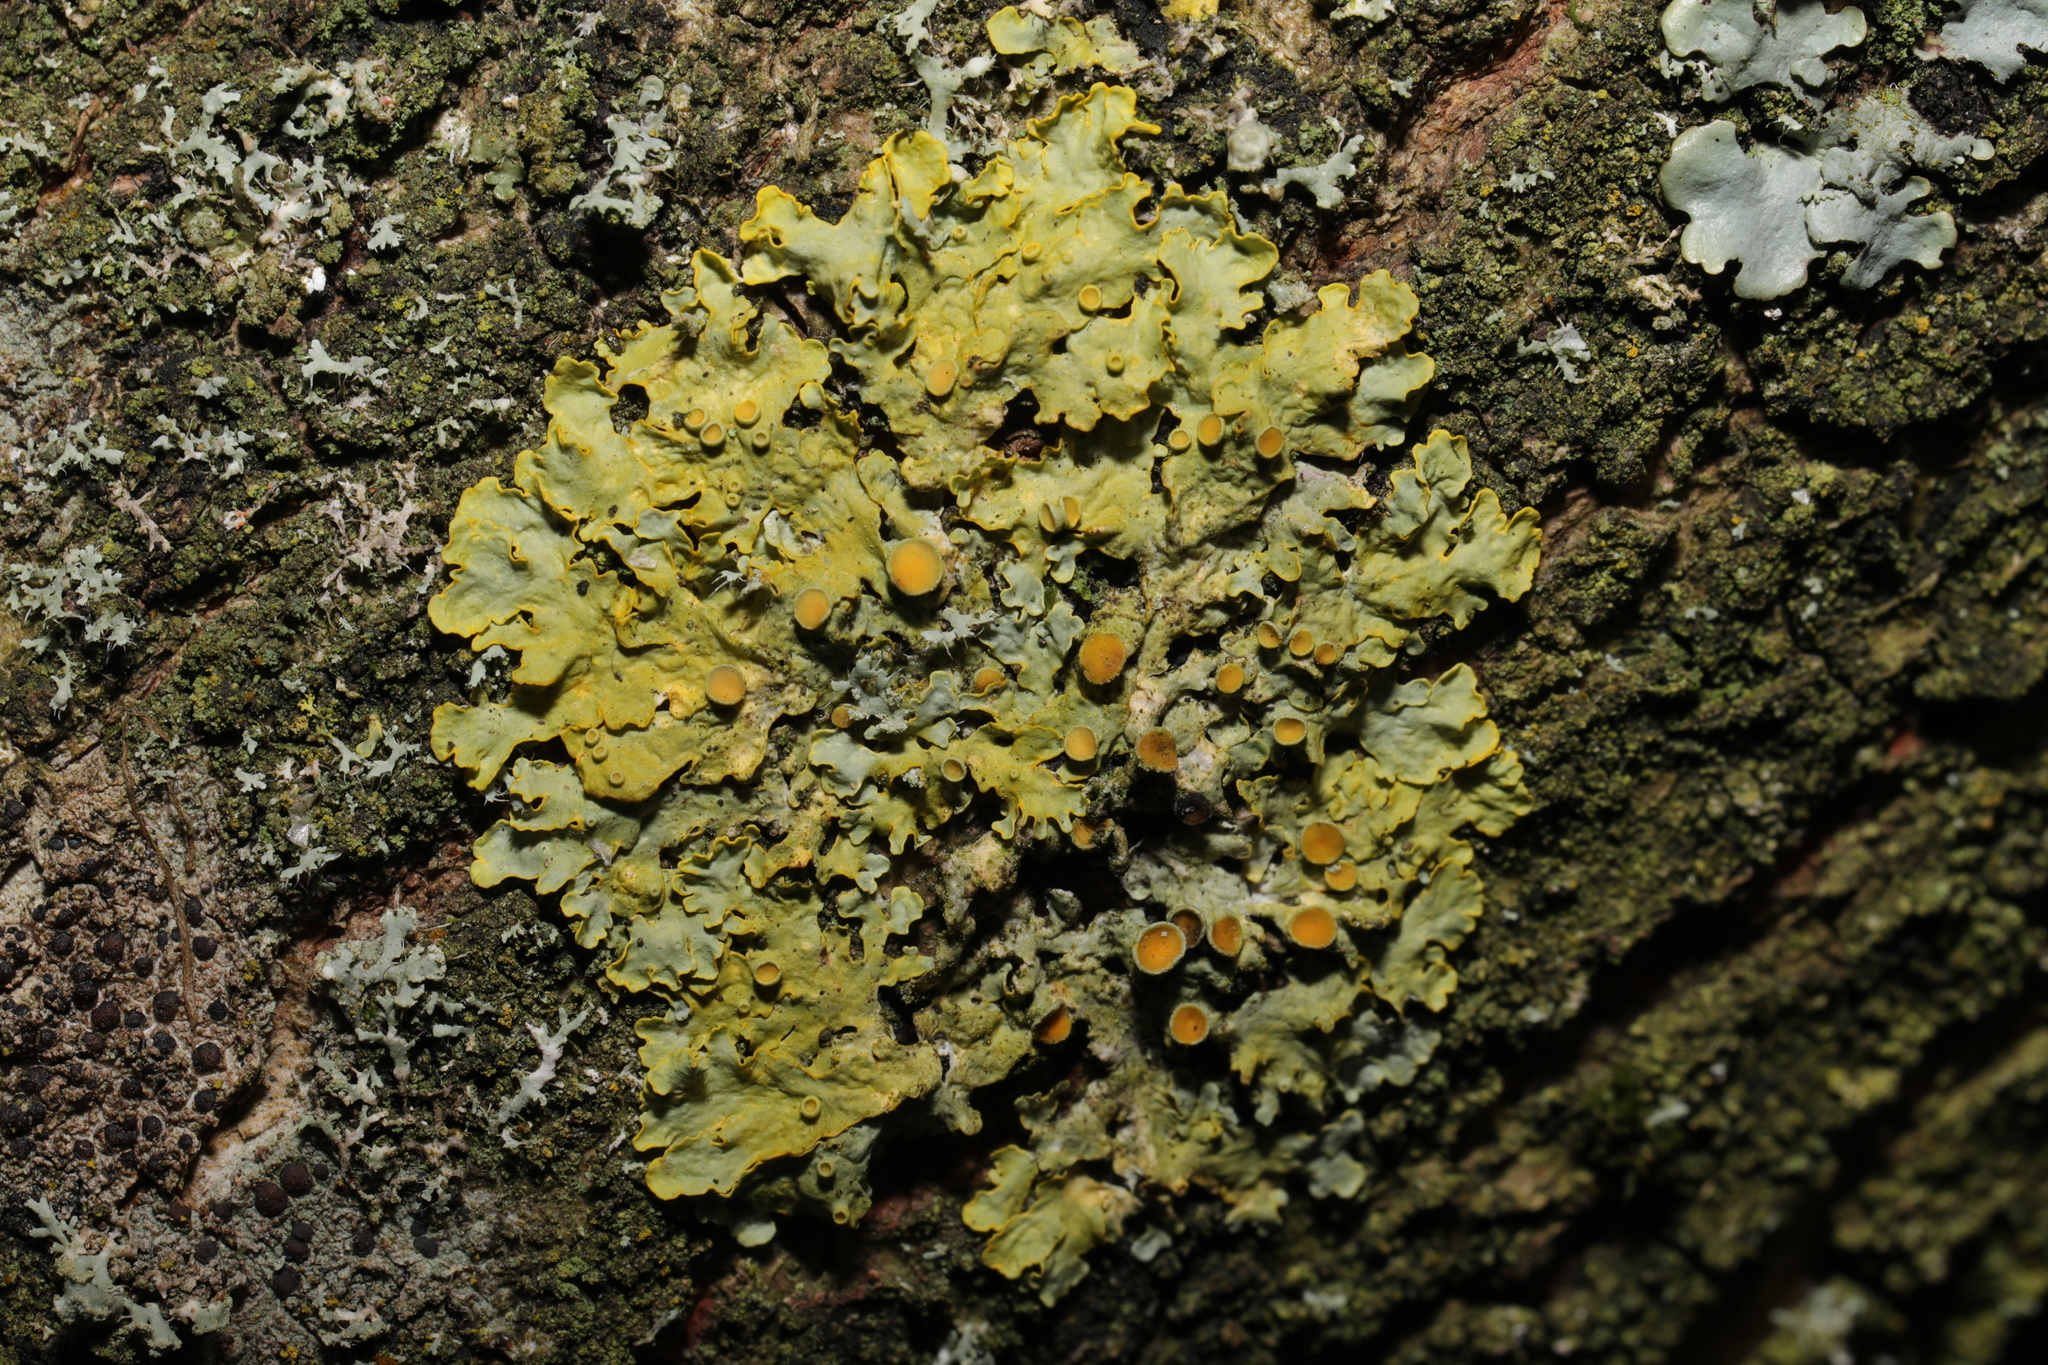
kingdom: Fungi
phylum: Ascomycota
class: Lecanoromycetes
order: Teloschistales
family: Teloschistaceae
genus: Xanthoria
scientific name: Xanthoria parietina
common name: Common orange lichen
